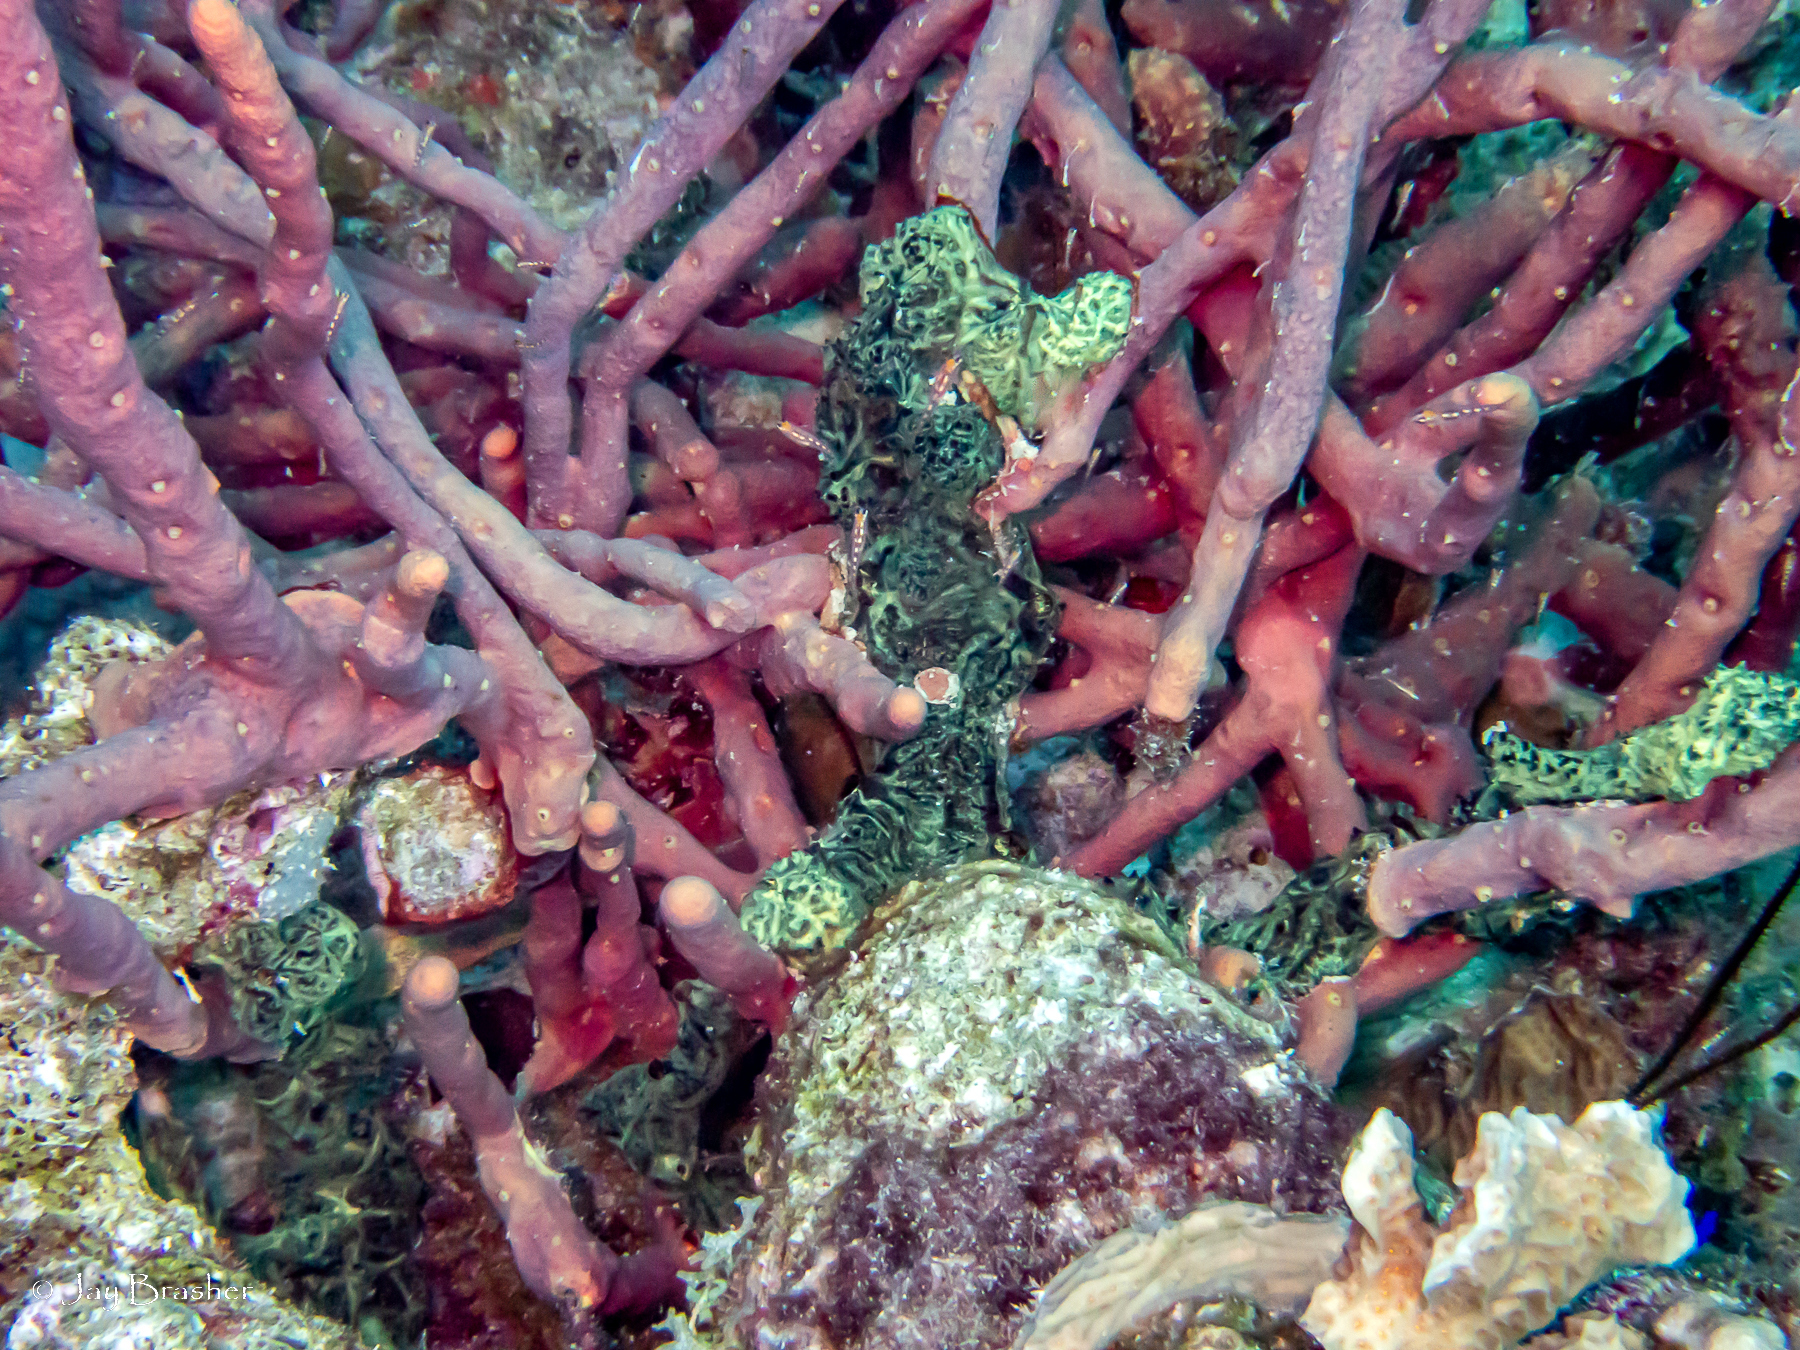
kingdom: Animalia
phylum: Porifera
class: Demospongiae
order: Poecilosclerida
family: Iotrochotidae
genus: Iotrochota
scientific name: Iotrochota birotulata
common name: Purple bleeding sponge
